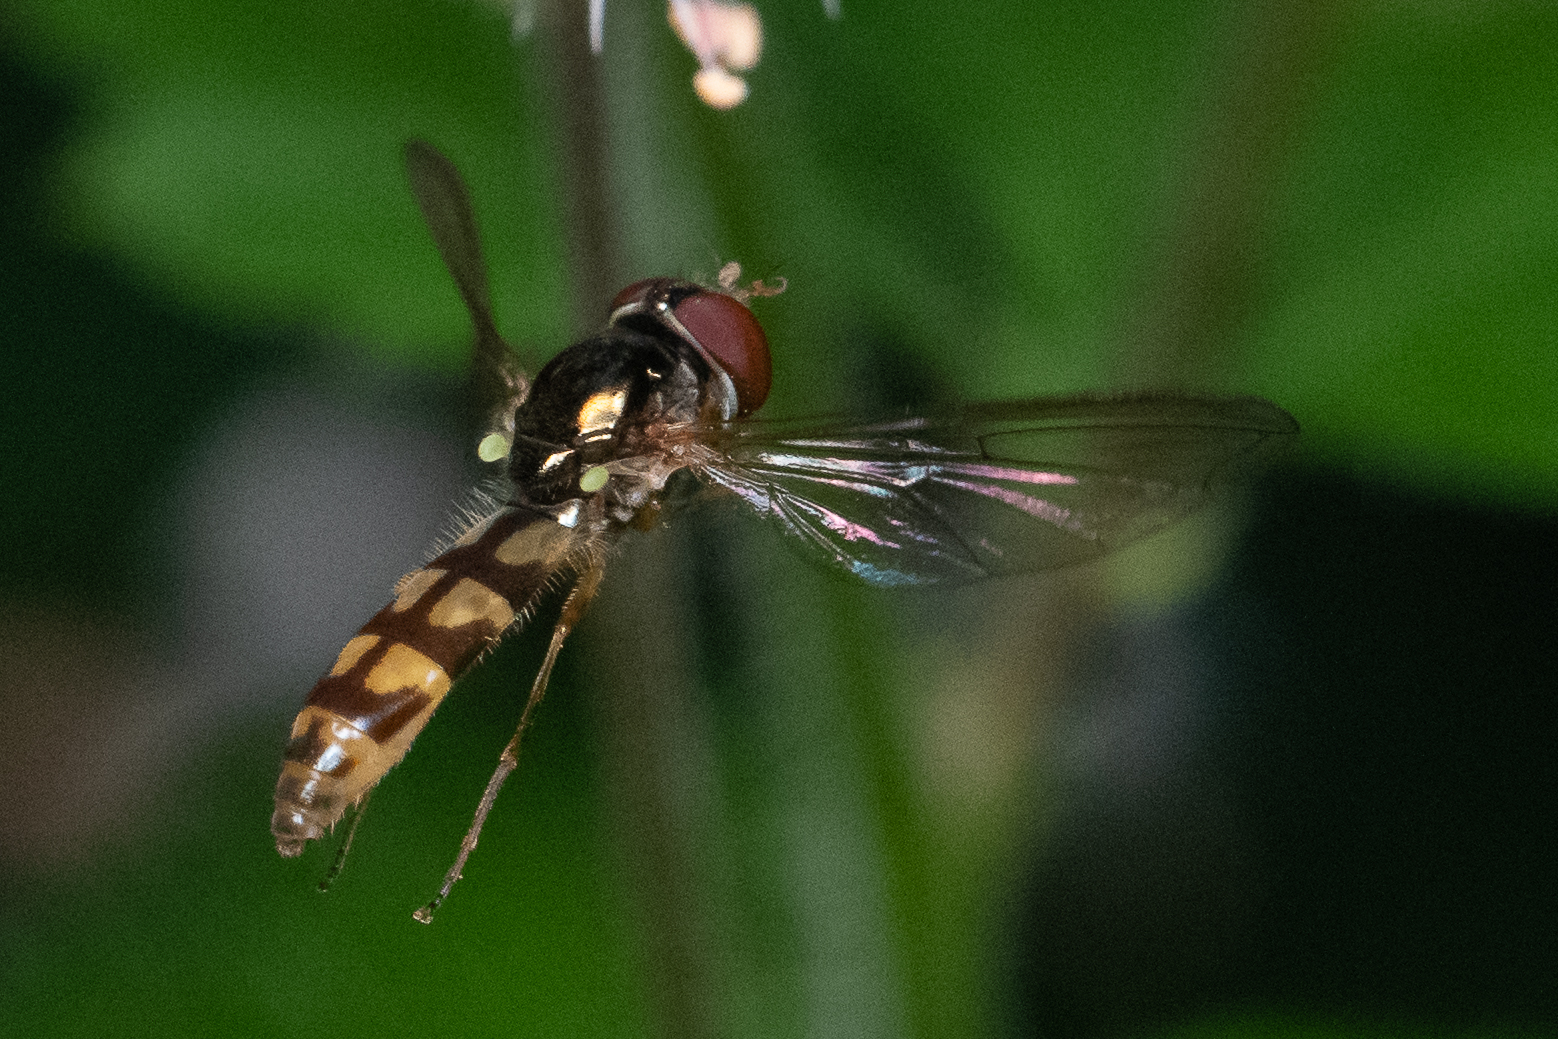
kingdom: Animalia
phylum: Arthropoda
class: Insecta
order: Diptera
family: Syrphidae
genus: Melanostoma
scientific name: Melanostoma mellina
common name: Hover fly
